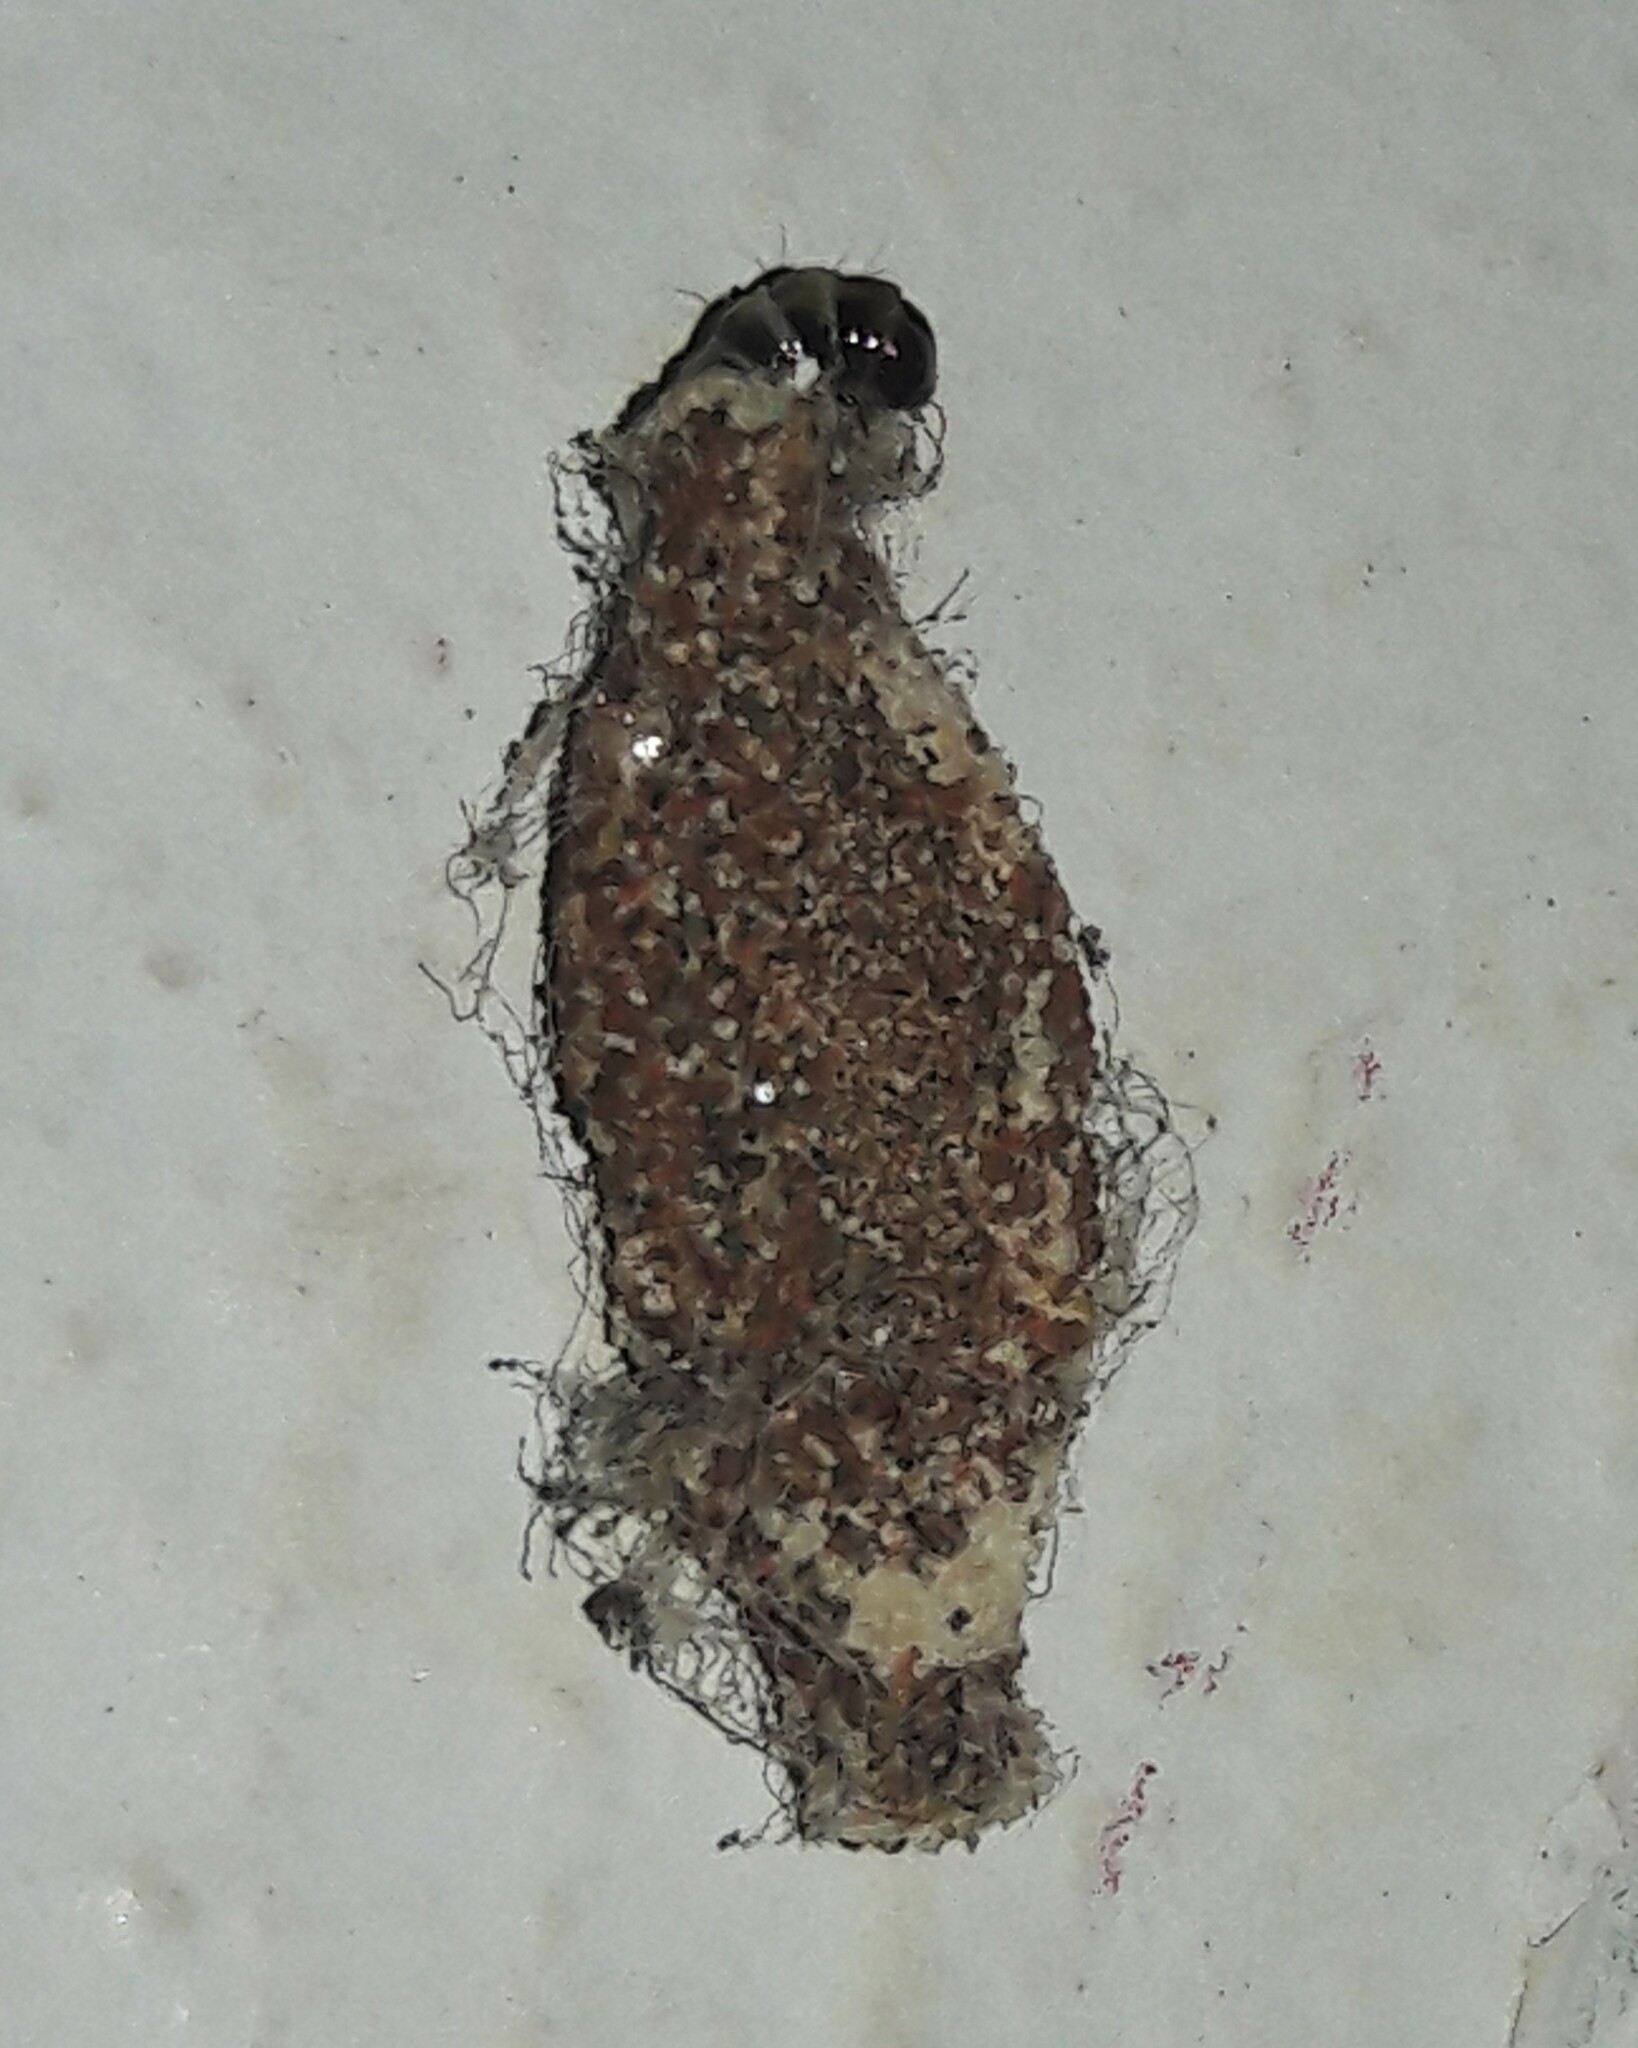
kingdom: Animalia
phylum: Arthropoda
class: Insecta
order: Lepidoptera
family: Tineidae
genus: Phereoeca
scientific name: Phereoeca uterella
